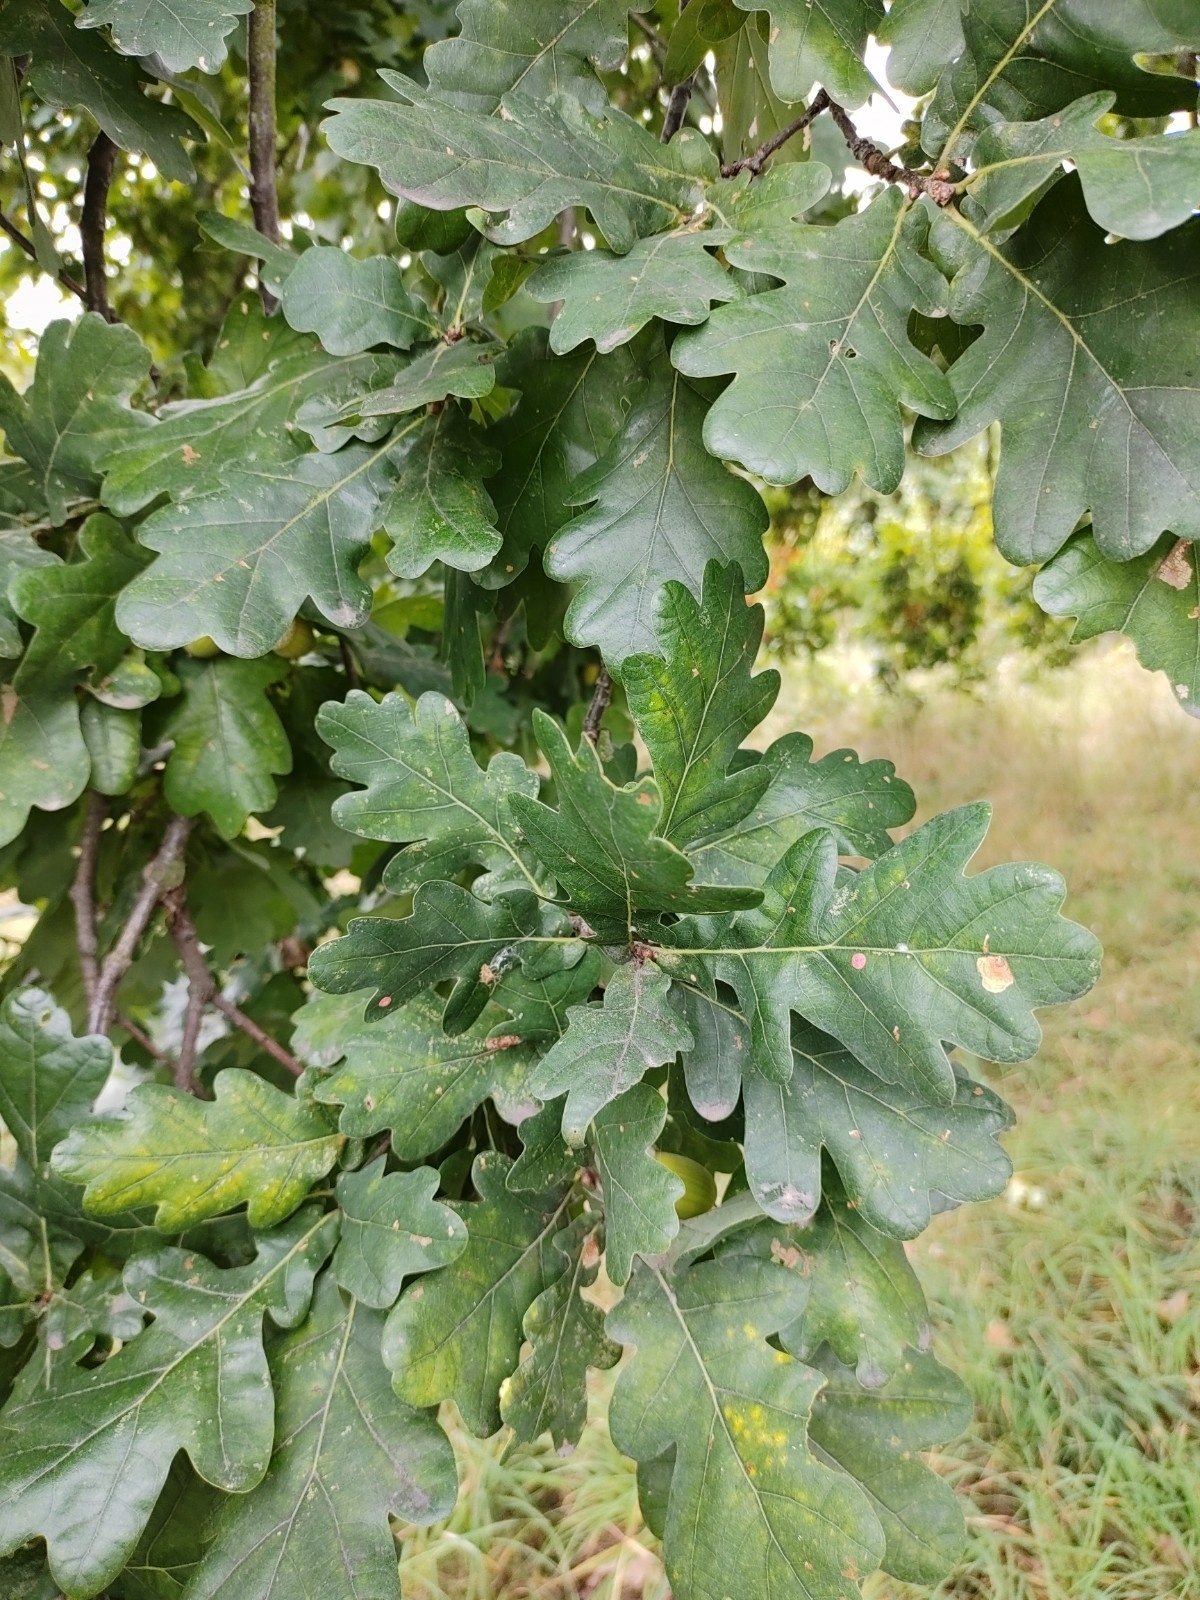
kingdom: Plantae
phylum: Tracheophyta
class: Magnoliopsida
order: Fagales
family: Fagaceae
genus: Quercus
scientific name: Quercus robur
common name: Pedunculate oak
